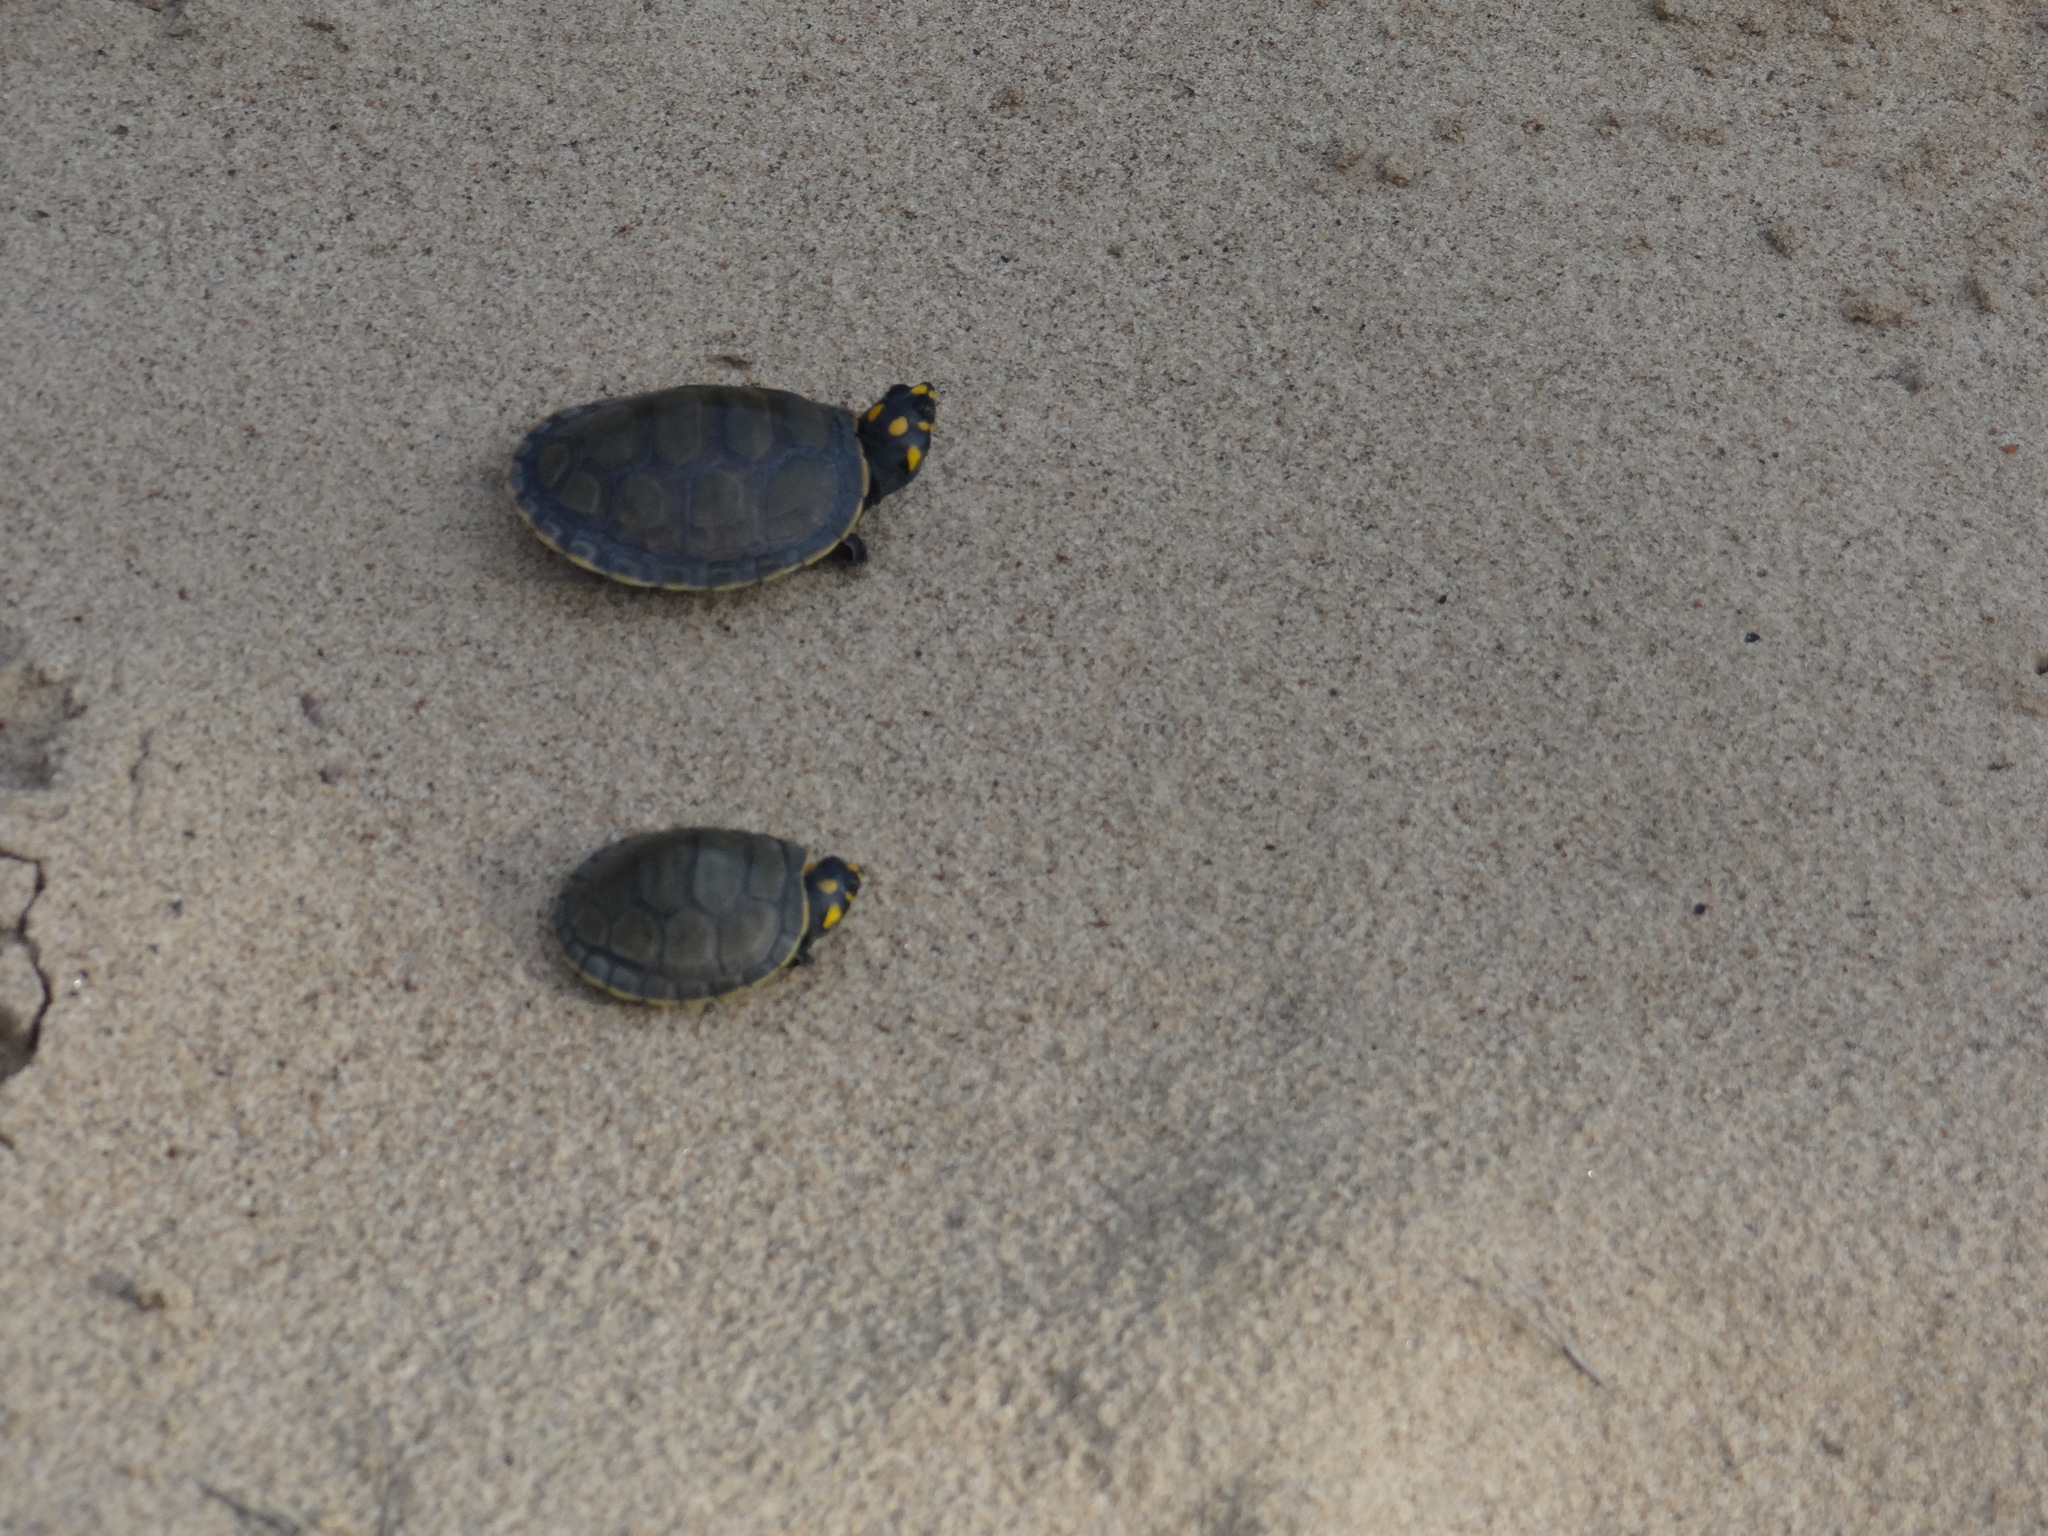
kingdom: Animalia
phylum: Chordata
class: Testudines
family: Podocnemididae
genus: Podocnemis
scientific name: Podocnemis unifilis
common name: Yellow-spotted amazon river turtle
